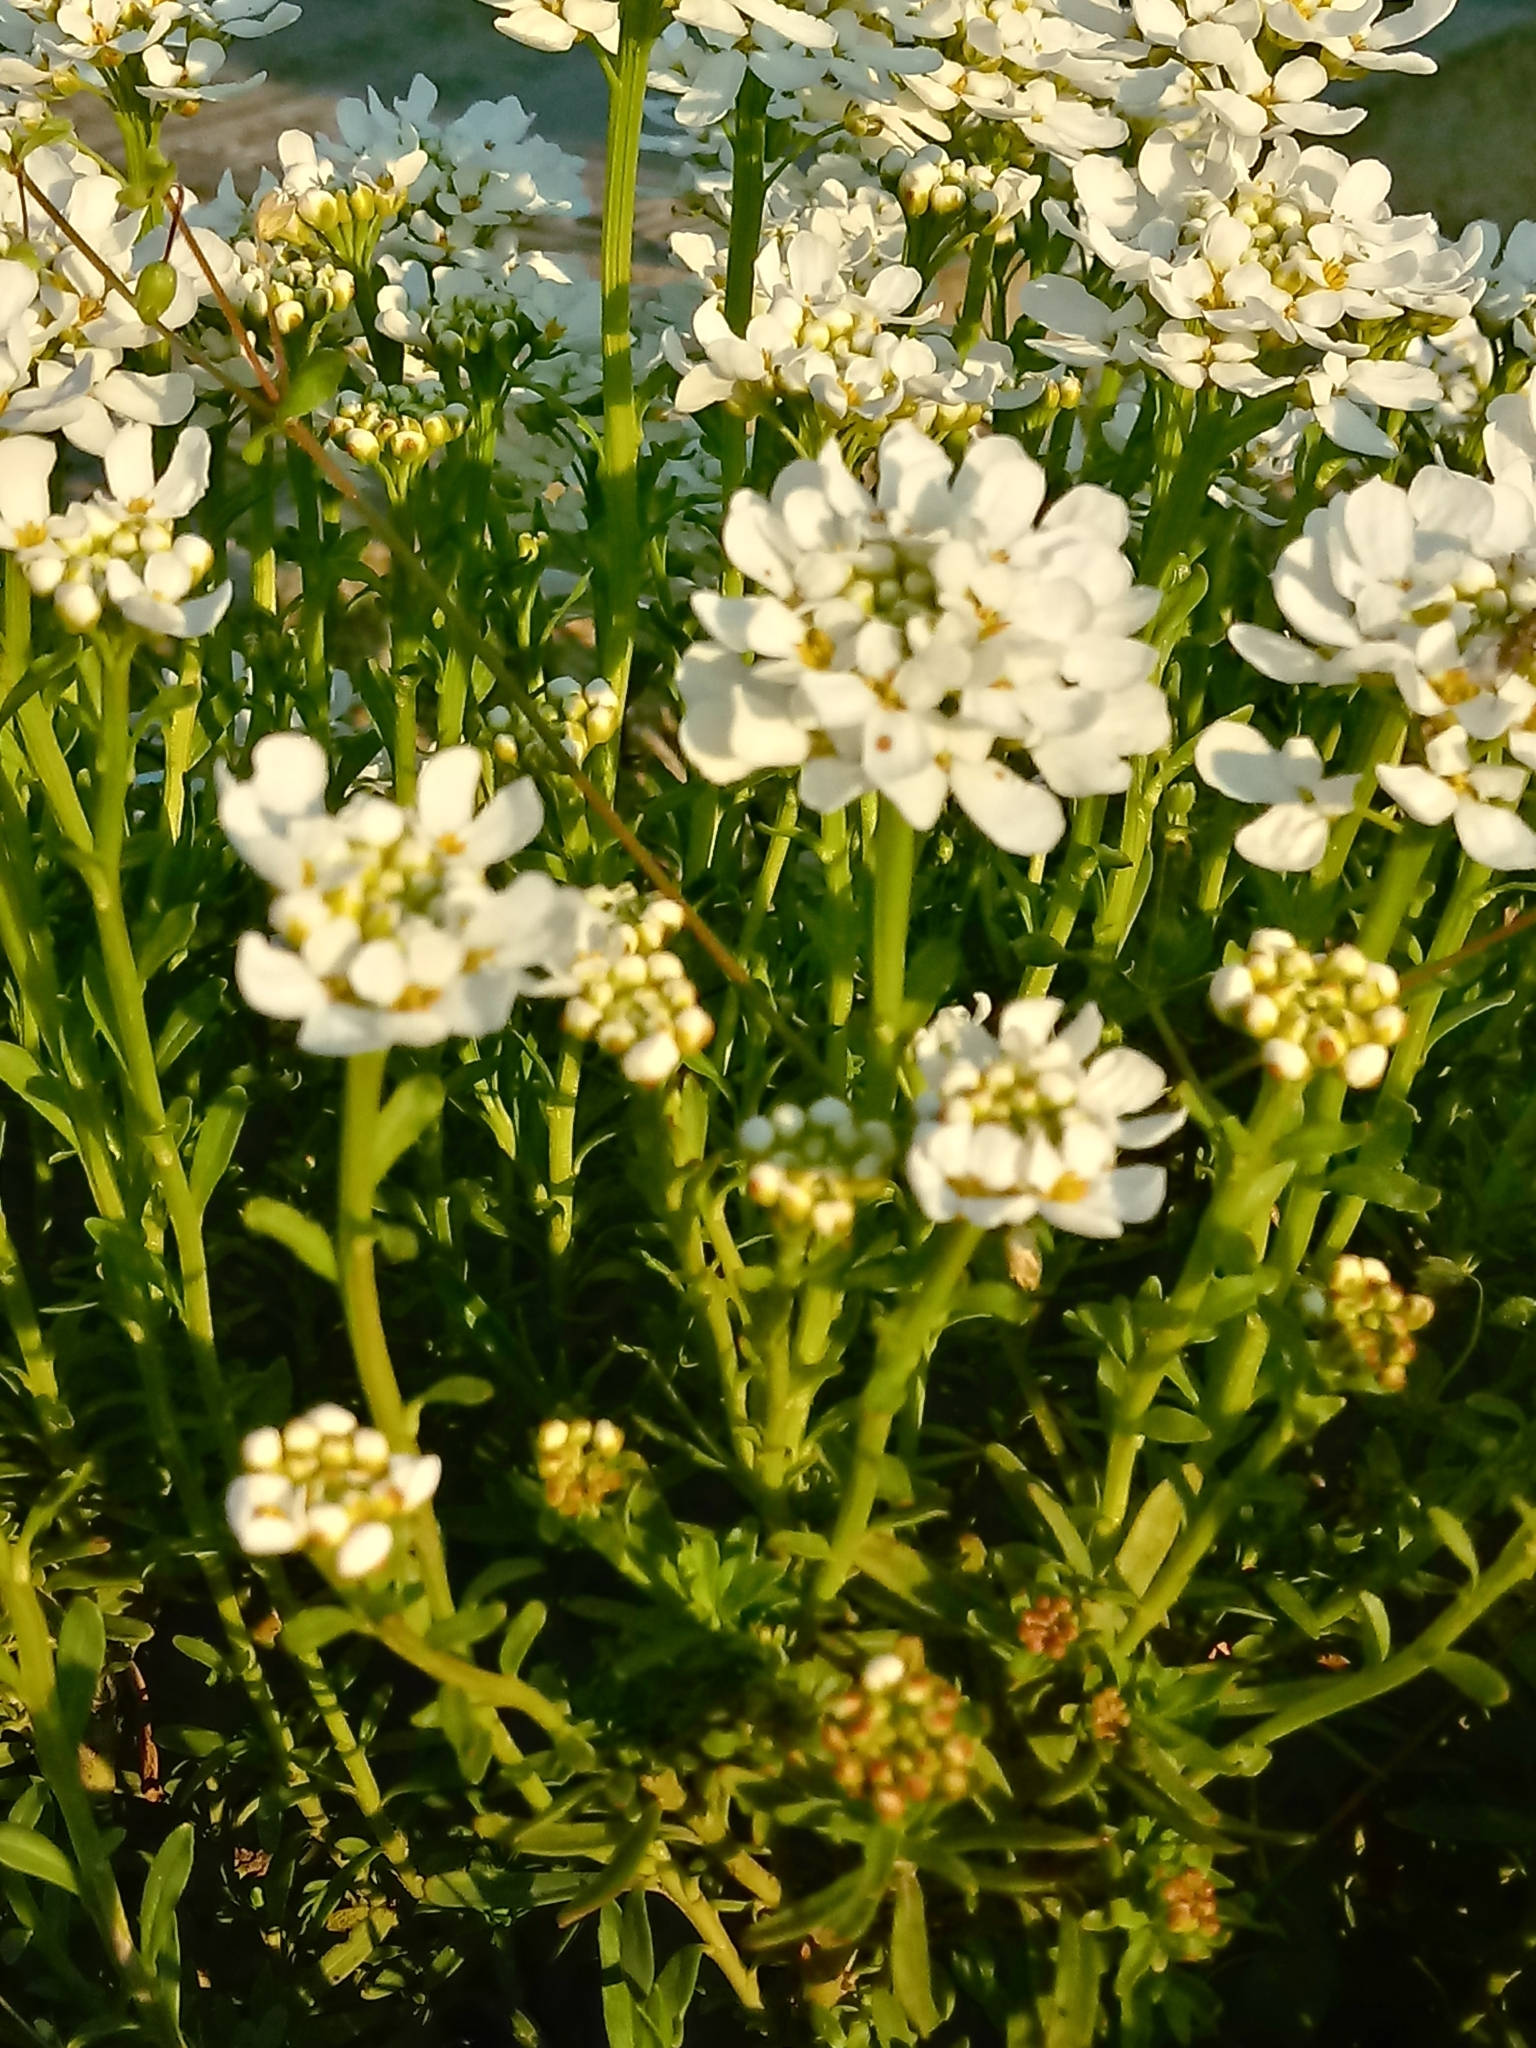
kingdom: Plantae
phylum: Tracheophyta
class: Magnoliopsida
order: Brassicales
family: Brassicaceae
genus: Iberis
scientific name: Iberis sempervirens
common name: Evergreen candytuft
